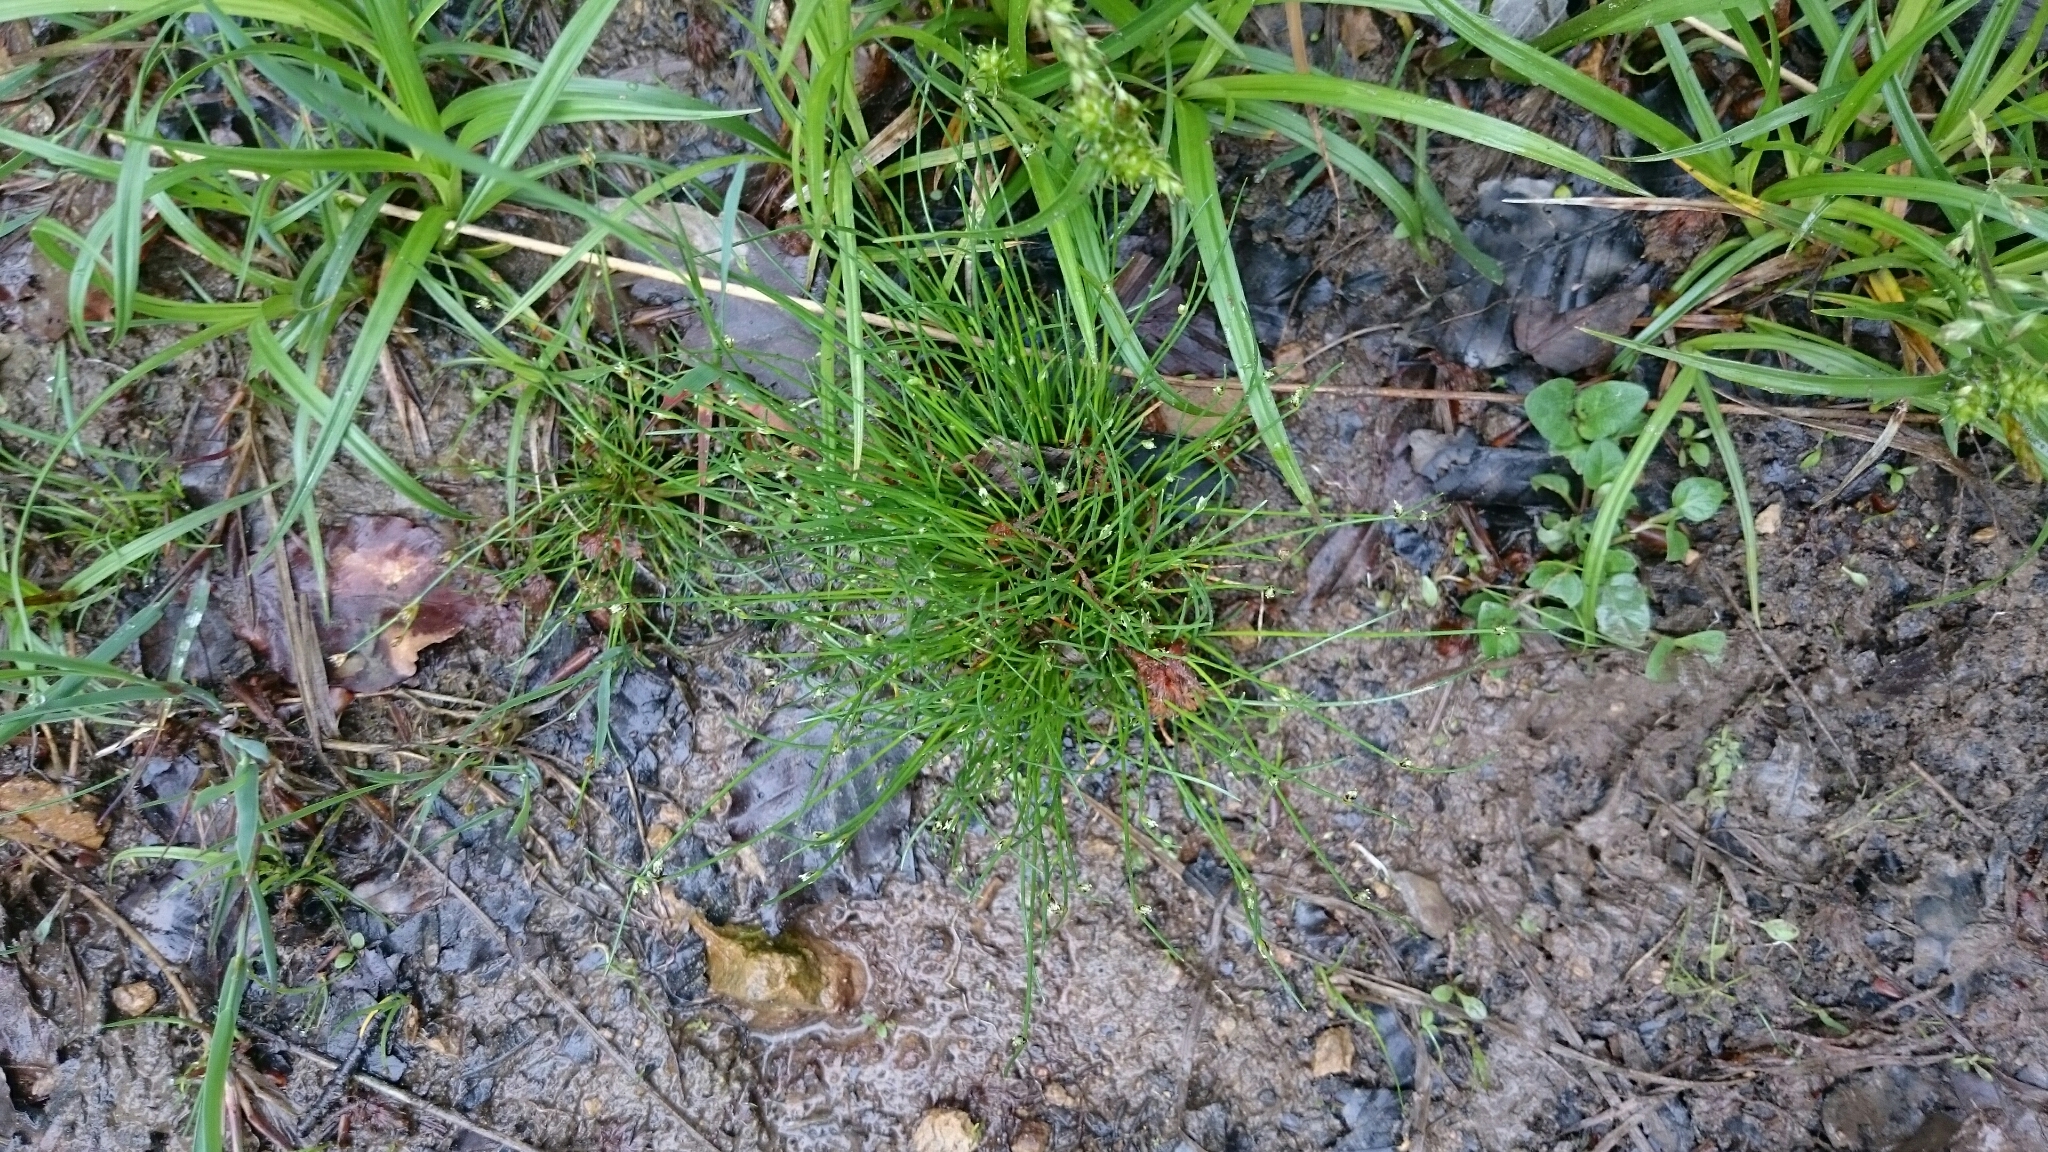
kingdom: Plantae
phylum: Tracheophyta
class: Liliopsida
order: Poales
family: Cyperaceae
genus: Isolepis
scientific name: Isolepis setacea
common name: Bristle club-rush
